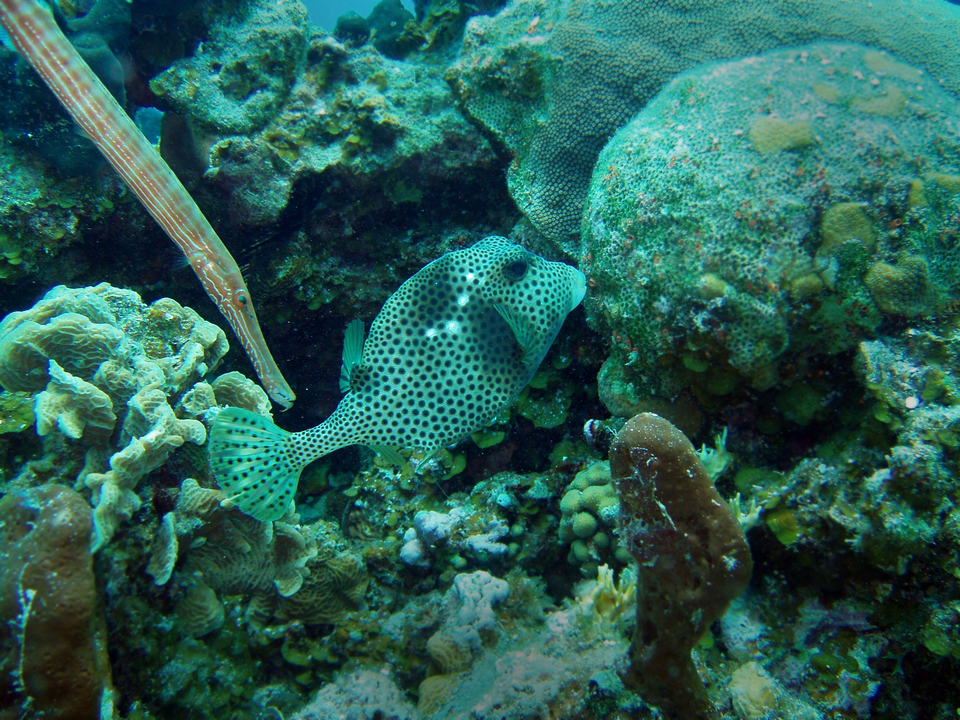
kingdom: Animalia
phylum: Chordata
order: Tetraodontiformes
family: Ostraciidae
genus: Lactophrys
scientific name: Lactophrys bicaudalis
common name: Spotted trunkfish
